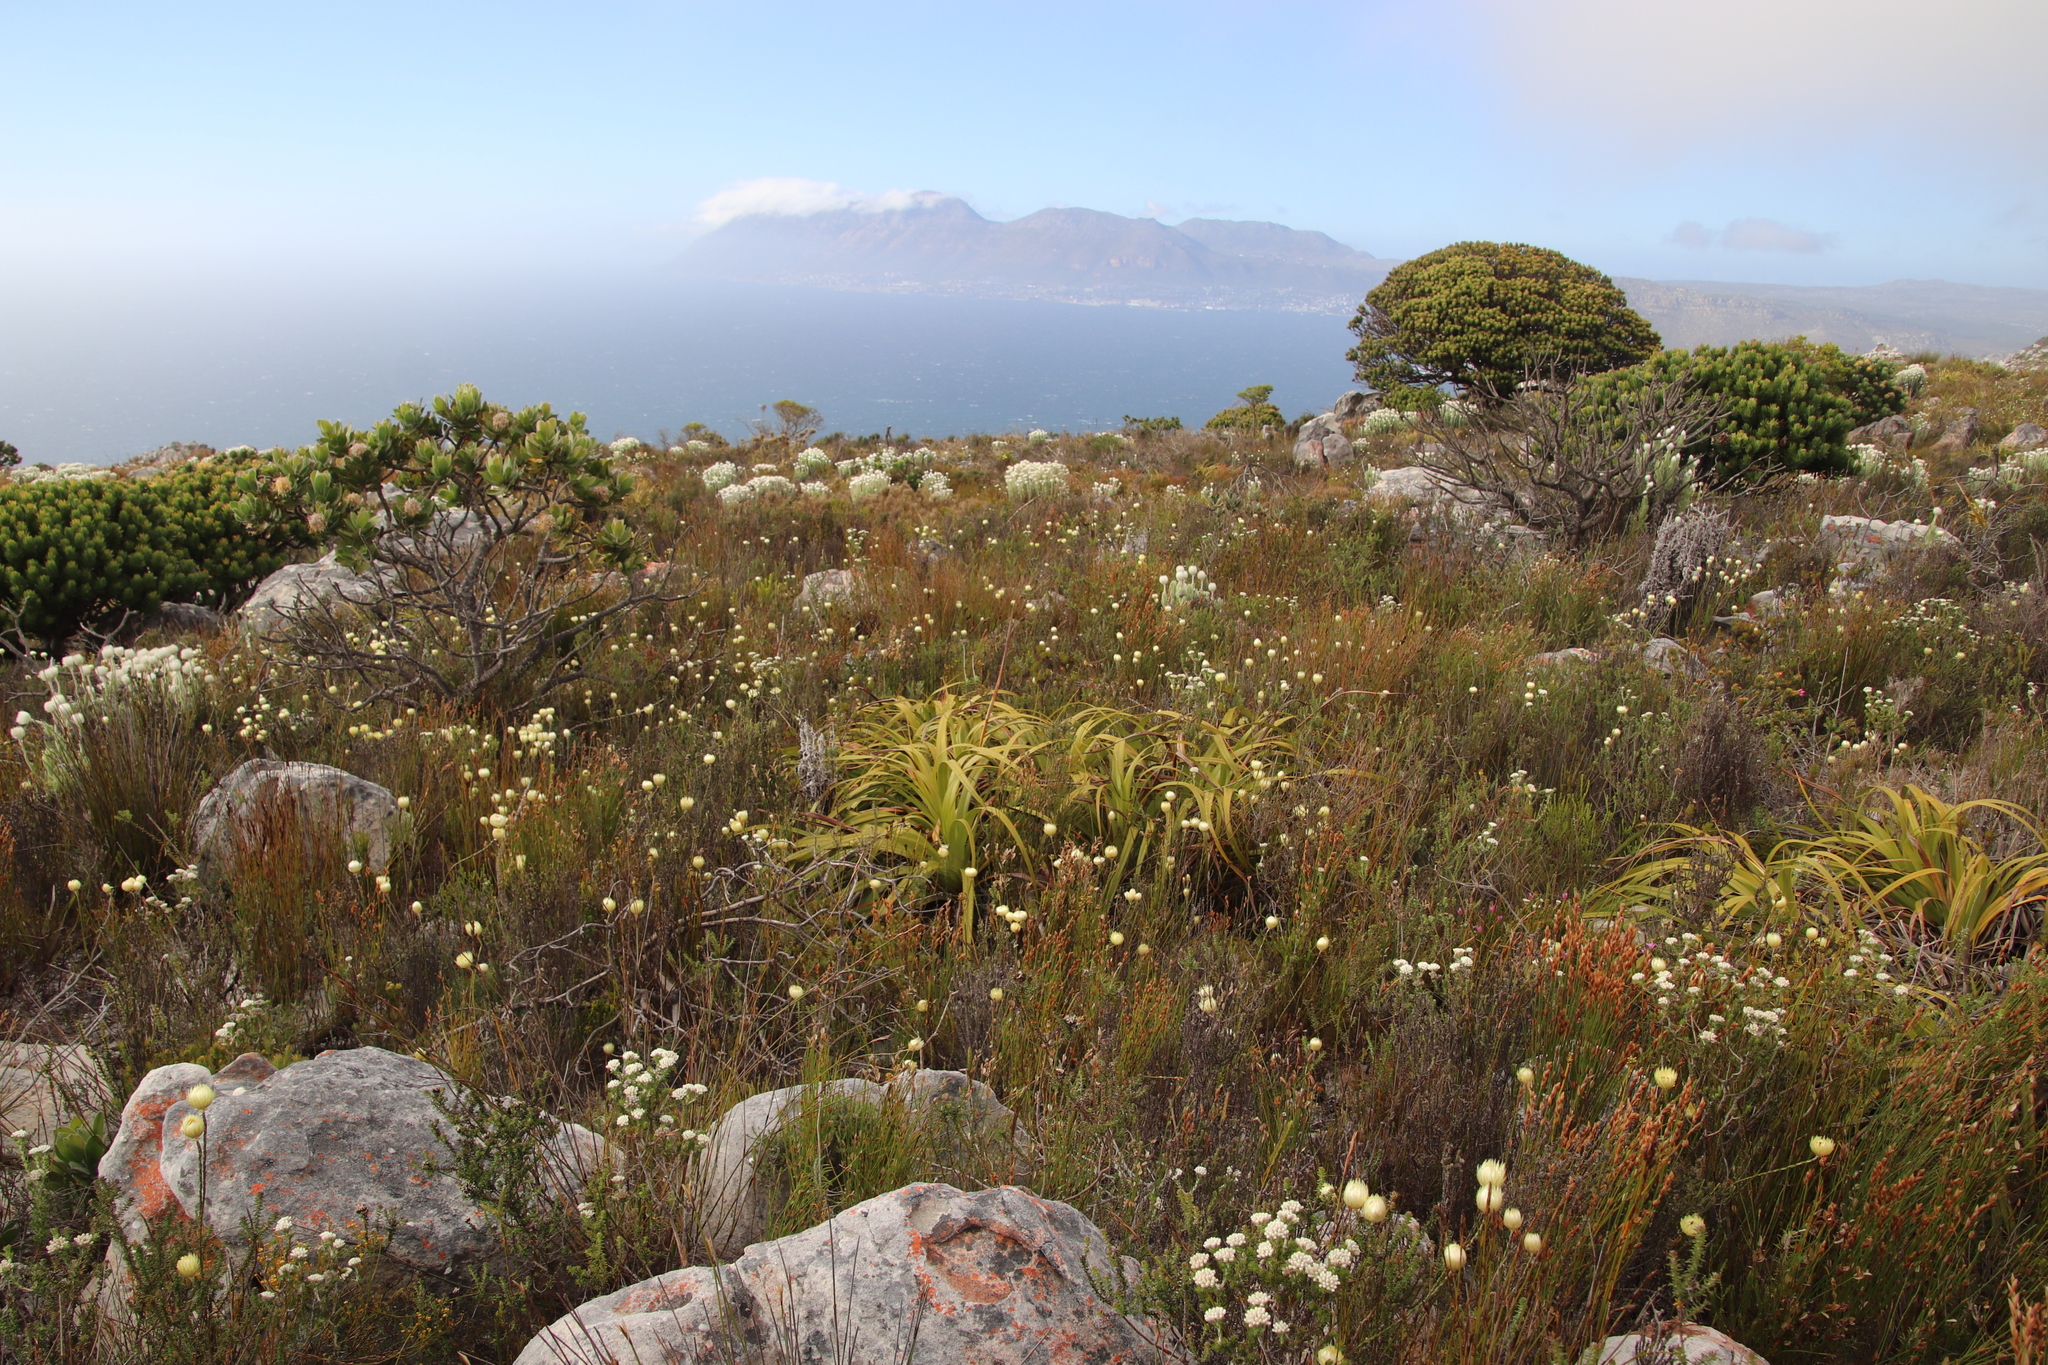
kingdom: Plantae
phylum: Tracheophyta
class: Magnoliopsida
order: Asterales
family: Asteraceae
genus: Edmondia
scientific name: Edmondia sesamoides
